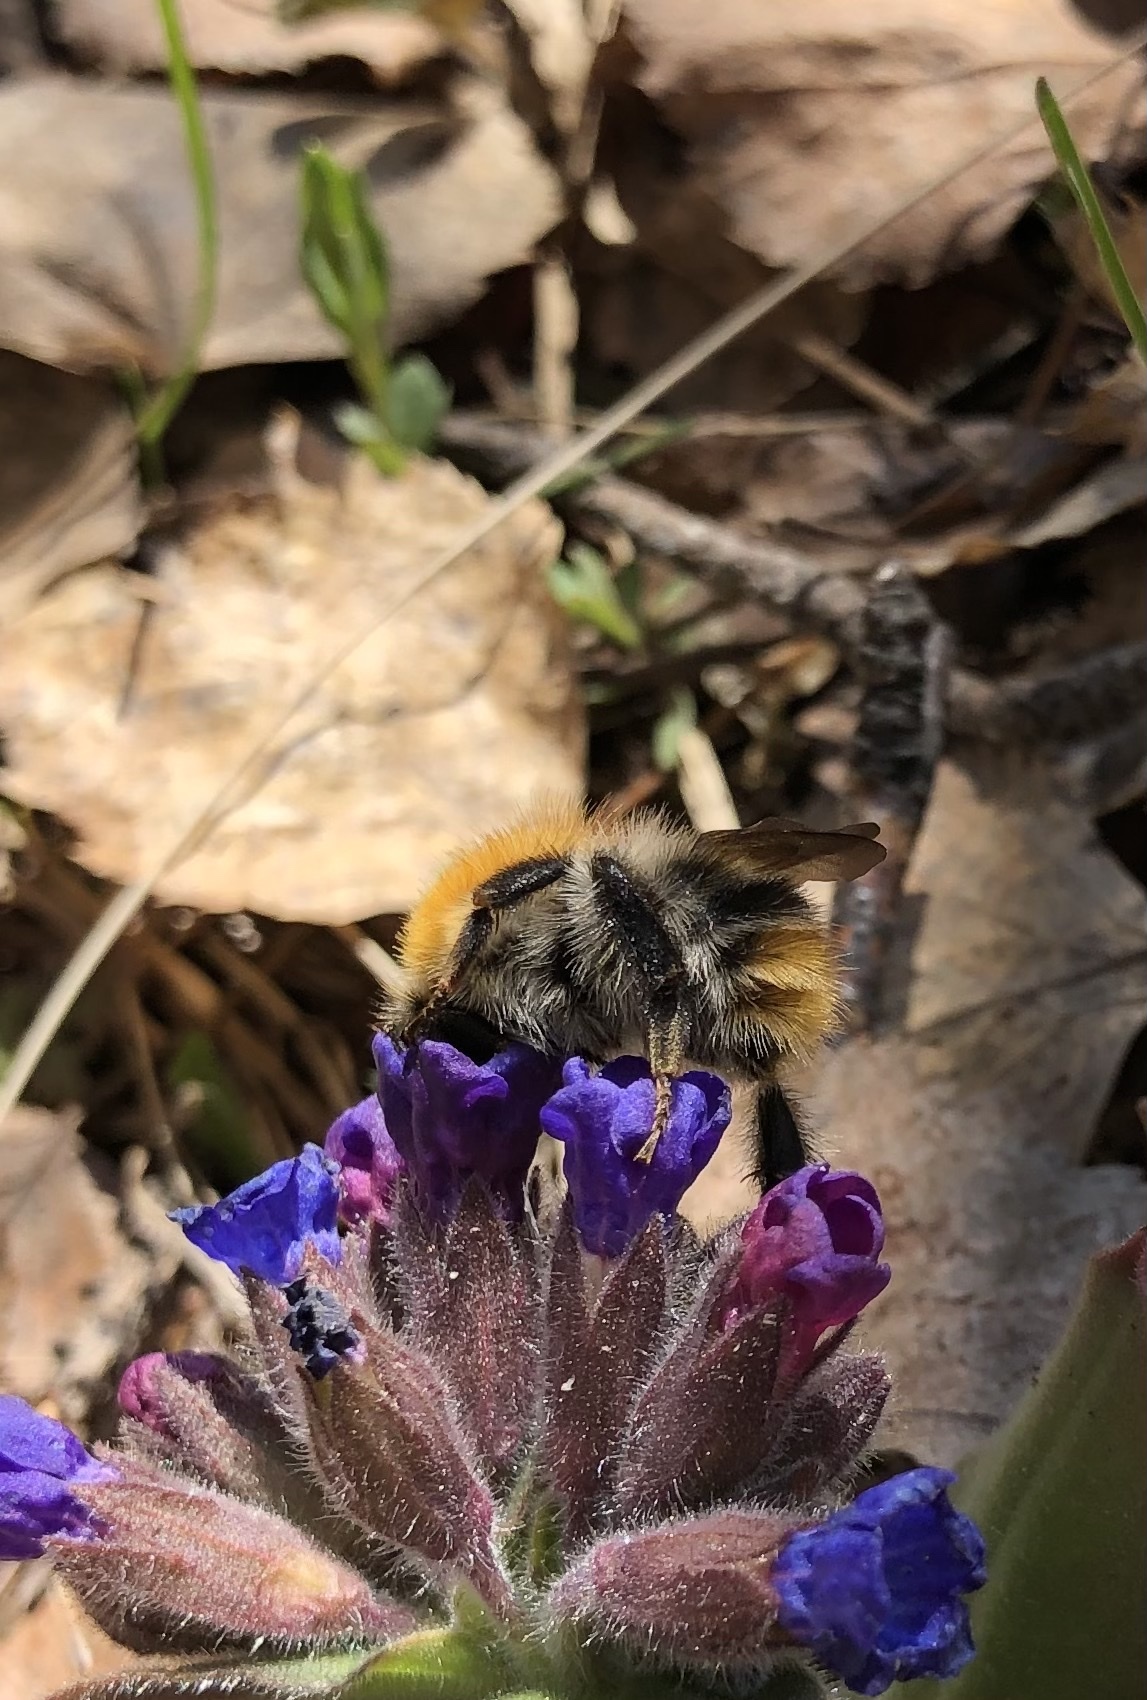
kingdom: Animalia
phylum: Arthropoda
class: Insecta
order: Hymenoptera
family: Apidae
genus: Bombus
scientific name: Bombus pascuorum
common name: Common carder bee
